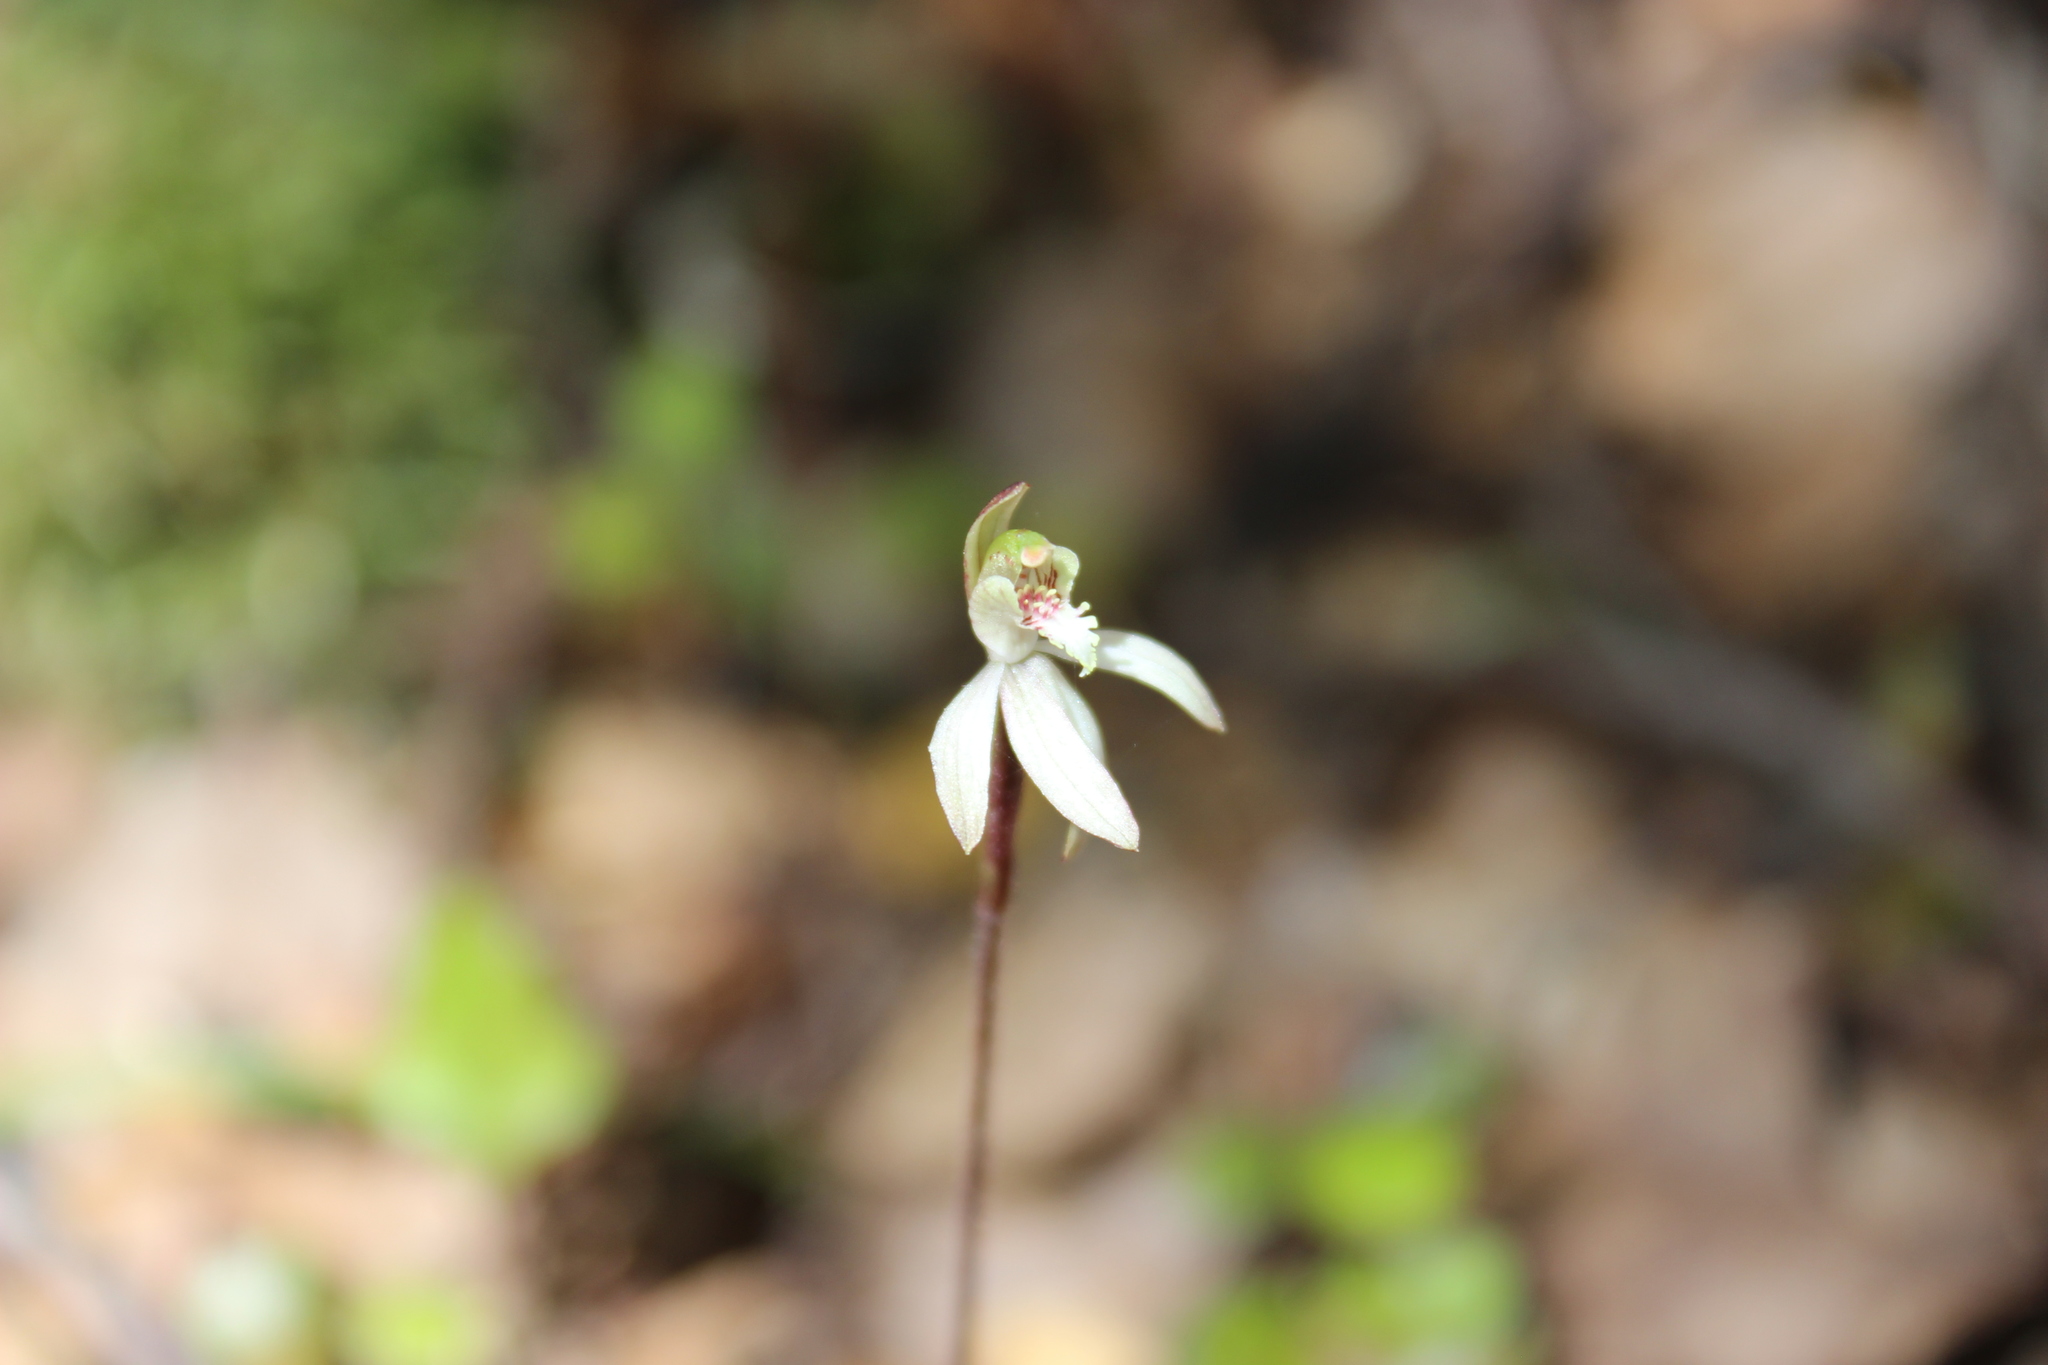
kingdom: Plantae
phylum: Tracheophyta
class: Liliopsida
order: Asparagales
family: Orchidaceae
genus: Caladenia
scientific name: Caladenia chlorostyla
